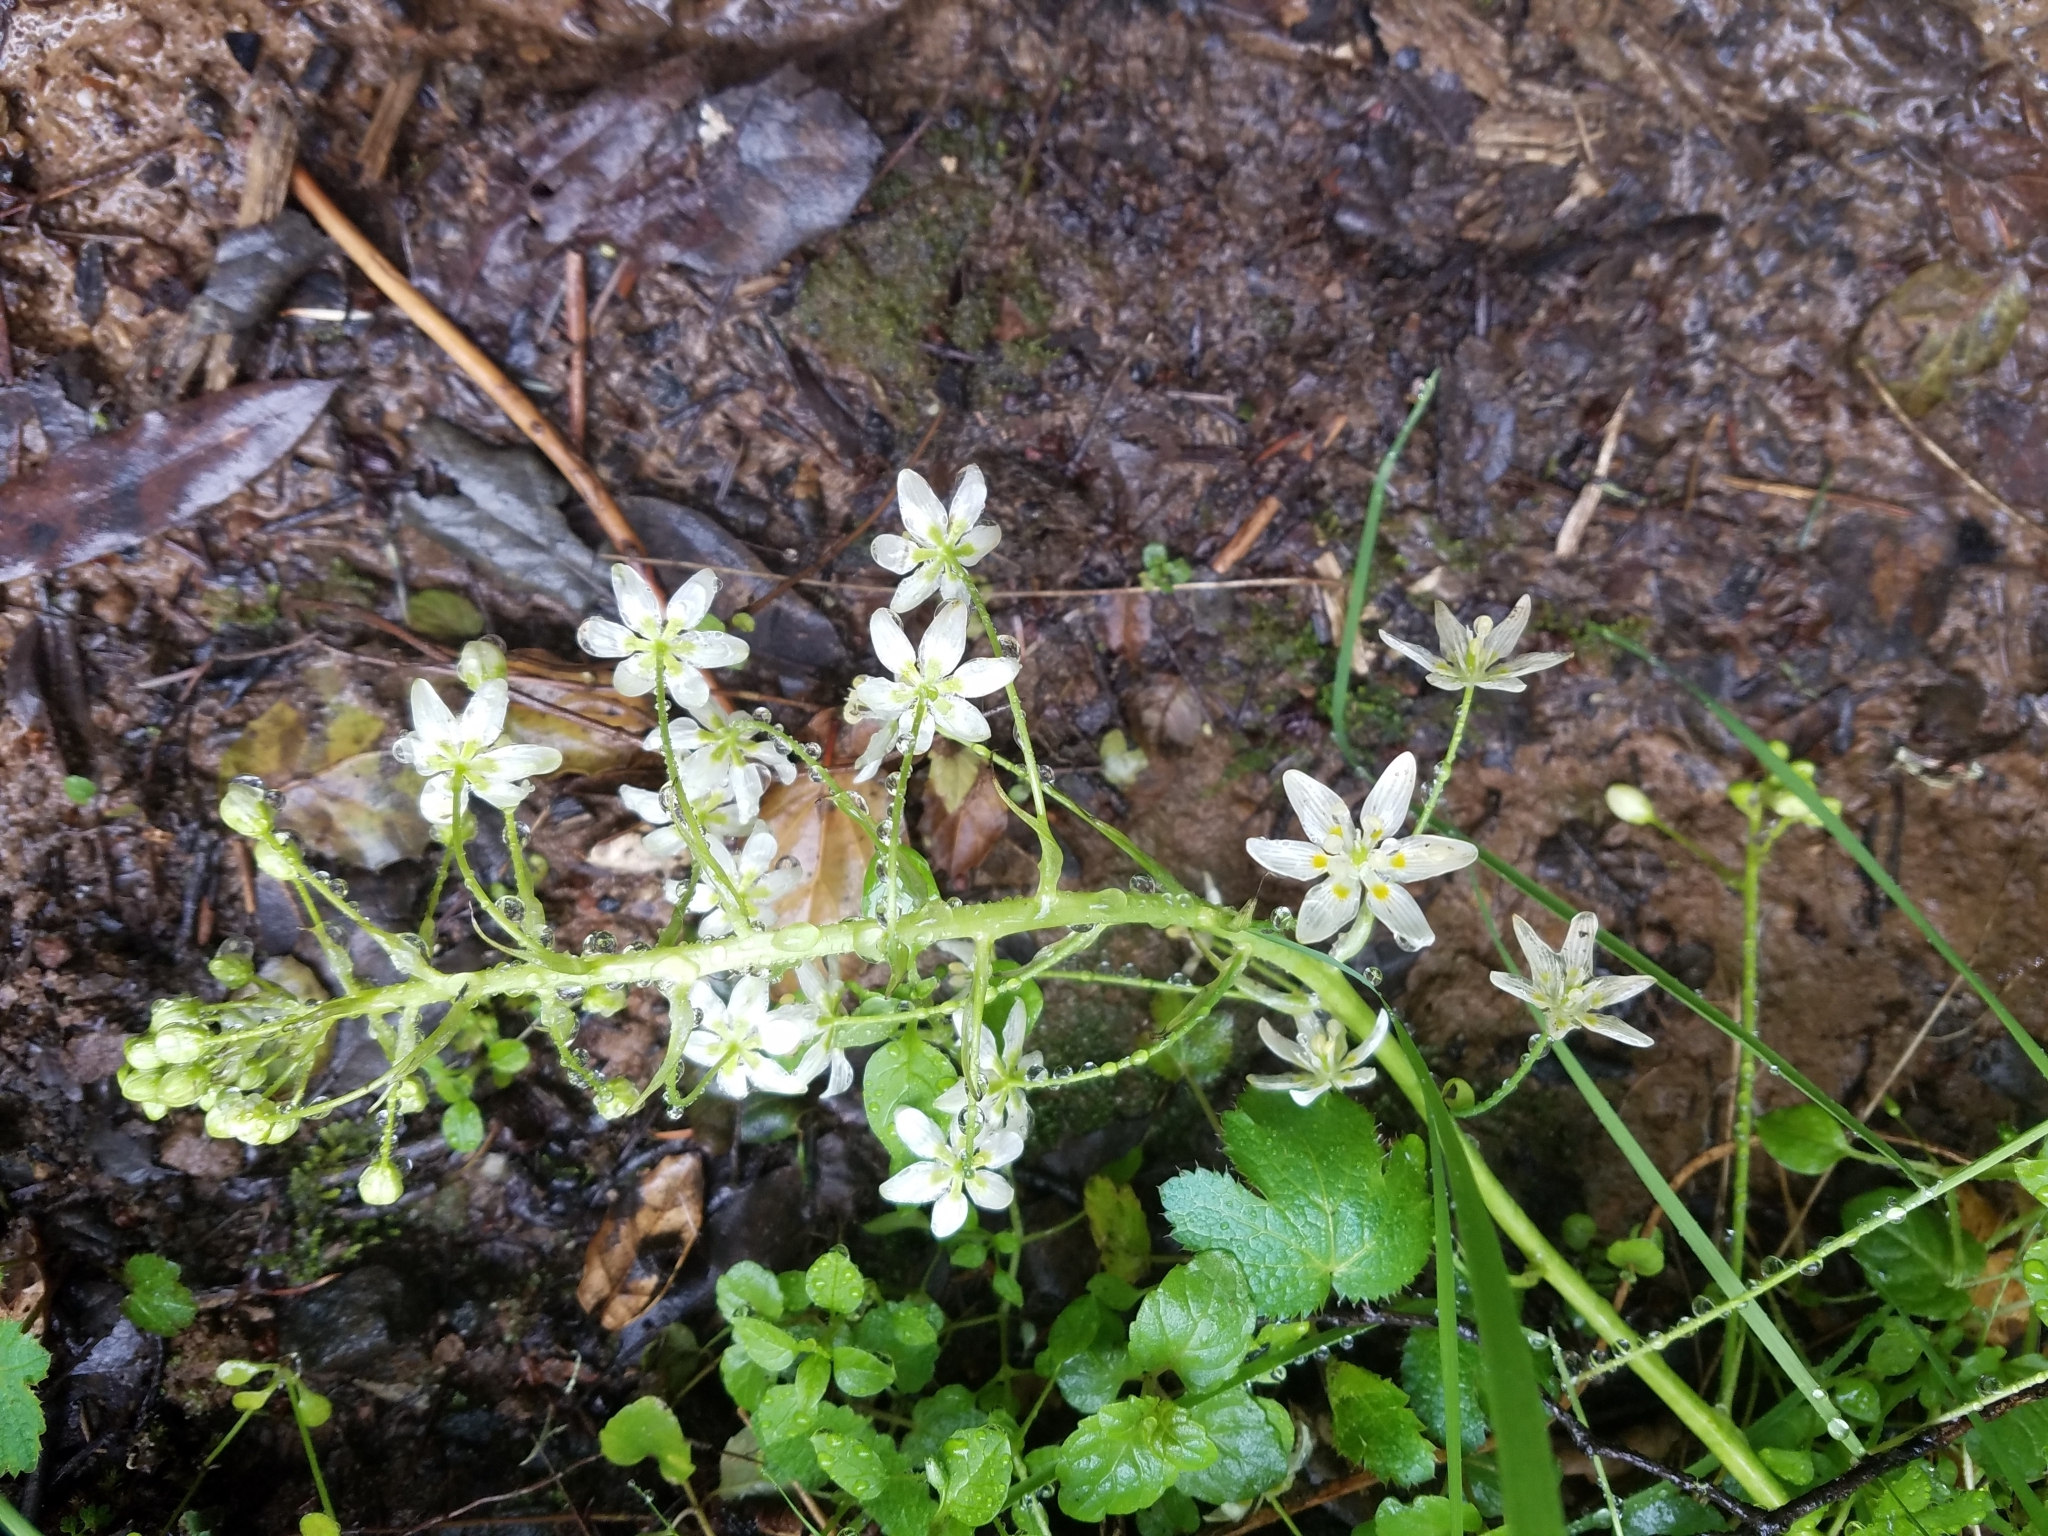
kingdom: Plantae
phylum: Tracheophyta
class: Liliopsida
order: Liliales
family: Melanthiaceae
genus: Toxicoscordion
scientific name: Toxicoscordion fremontii
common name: Fremont's death camas
